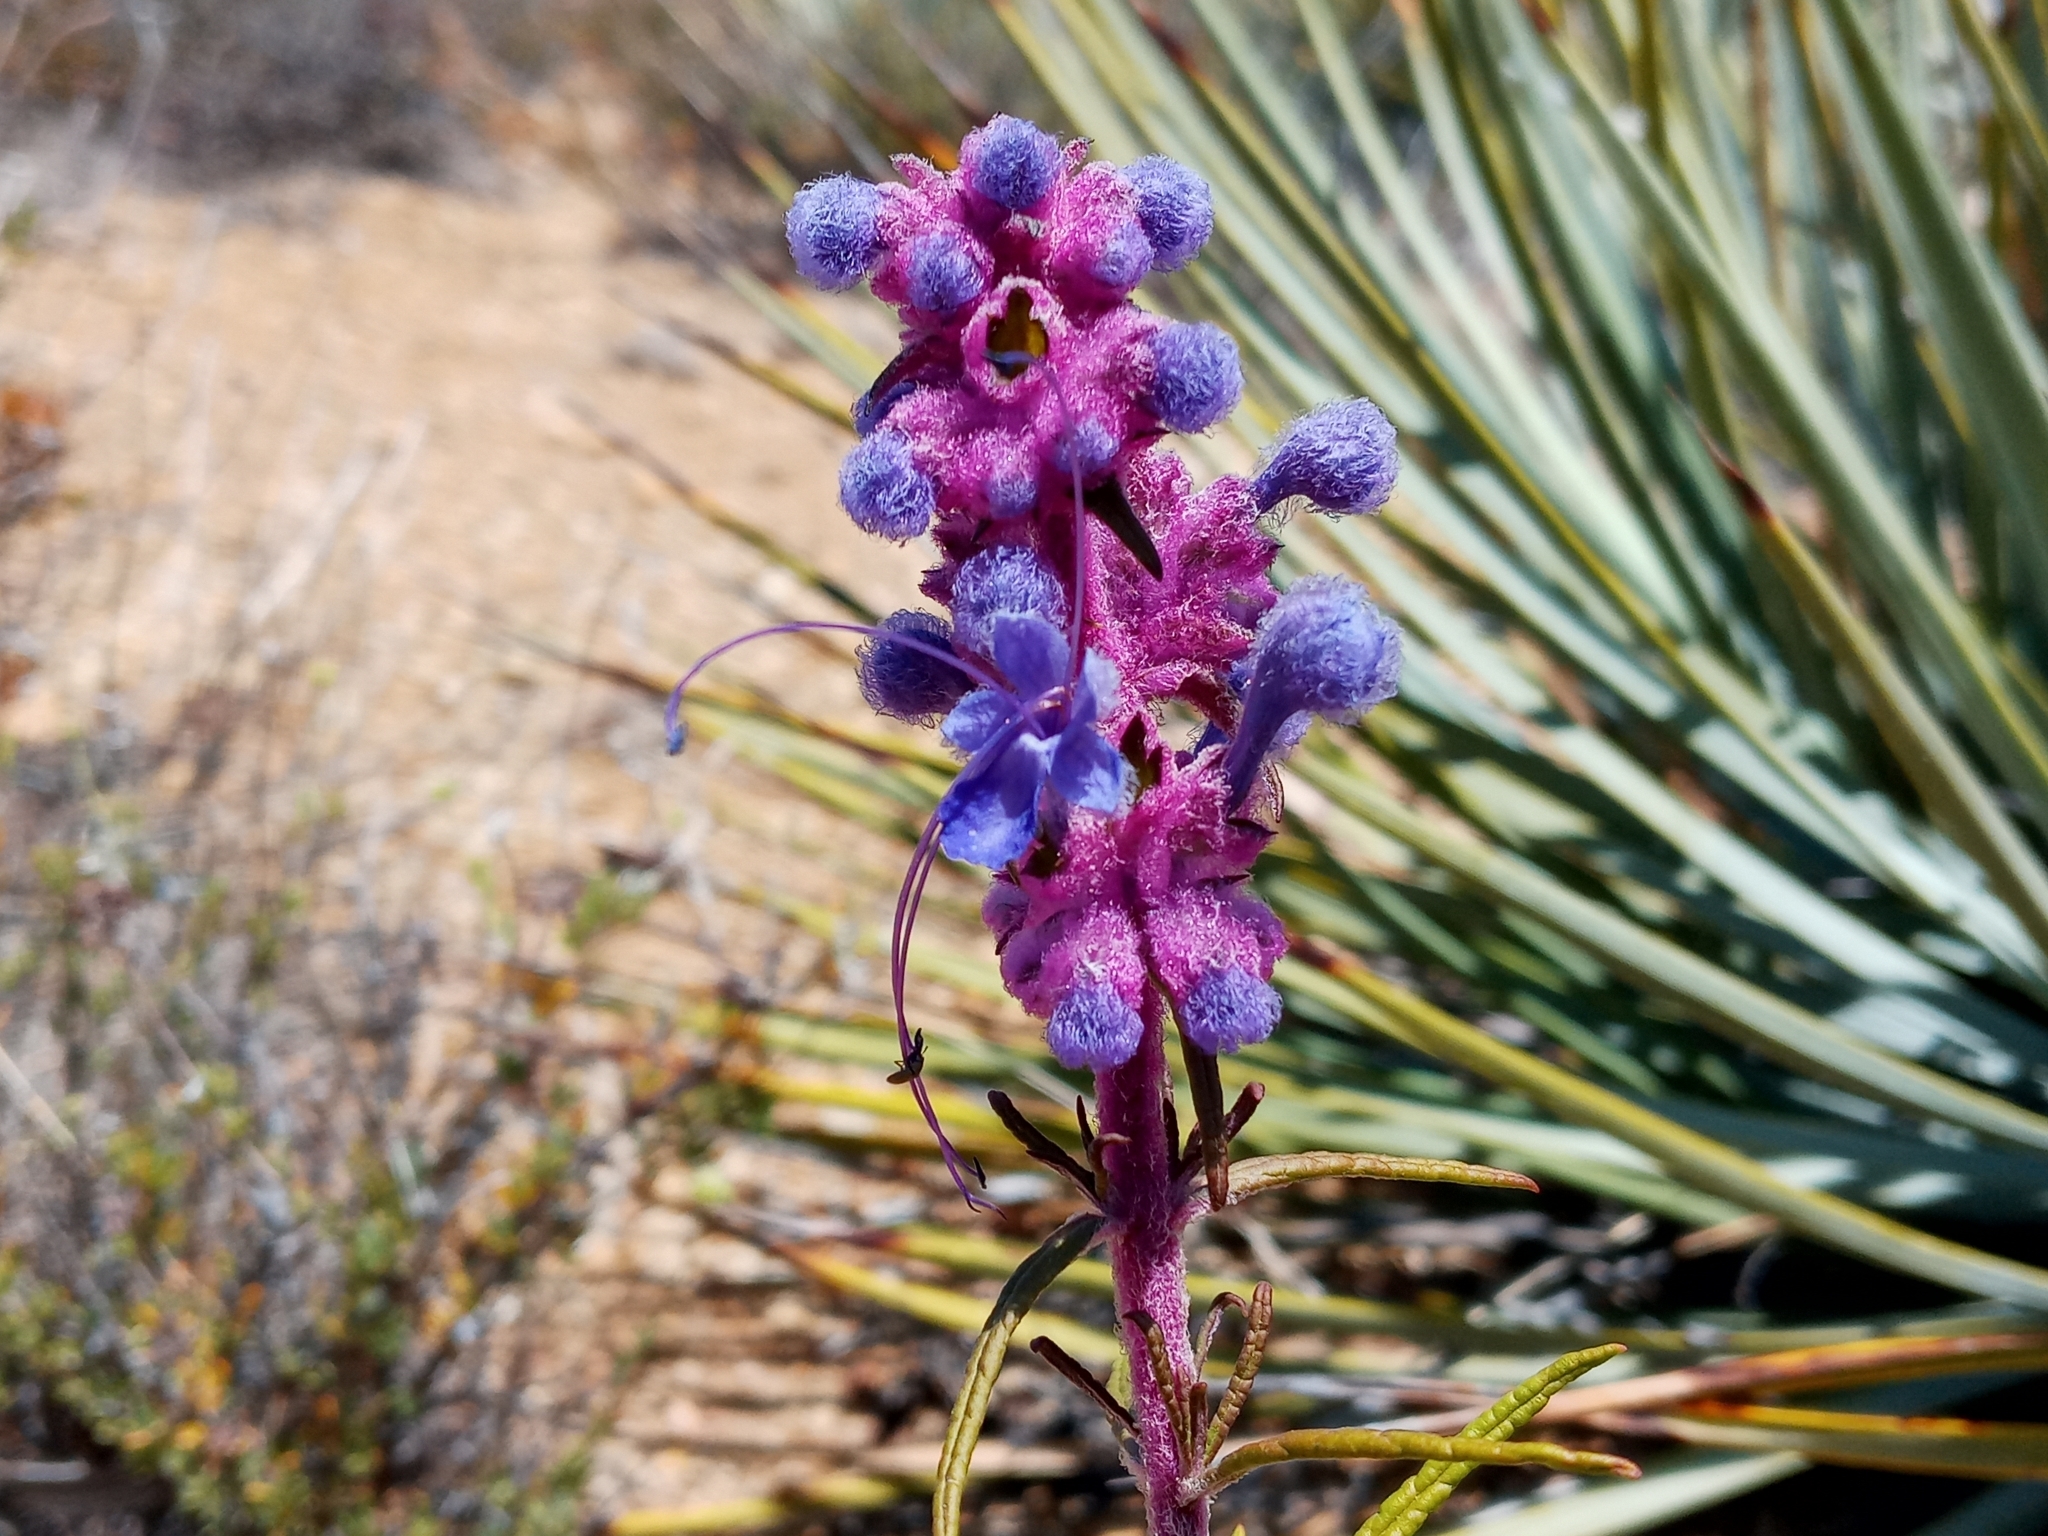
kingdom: Plantae
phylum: Tracheophyta
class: Magnoliopsida
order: Lamiales
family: Lamiaceae
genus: Trichostema
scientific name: Trichostema lanatum
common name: Woolly bluecurls
